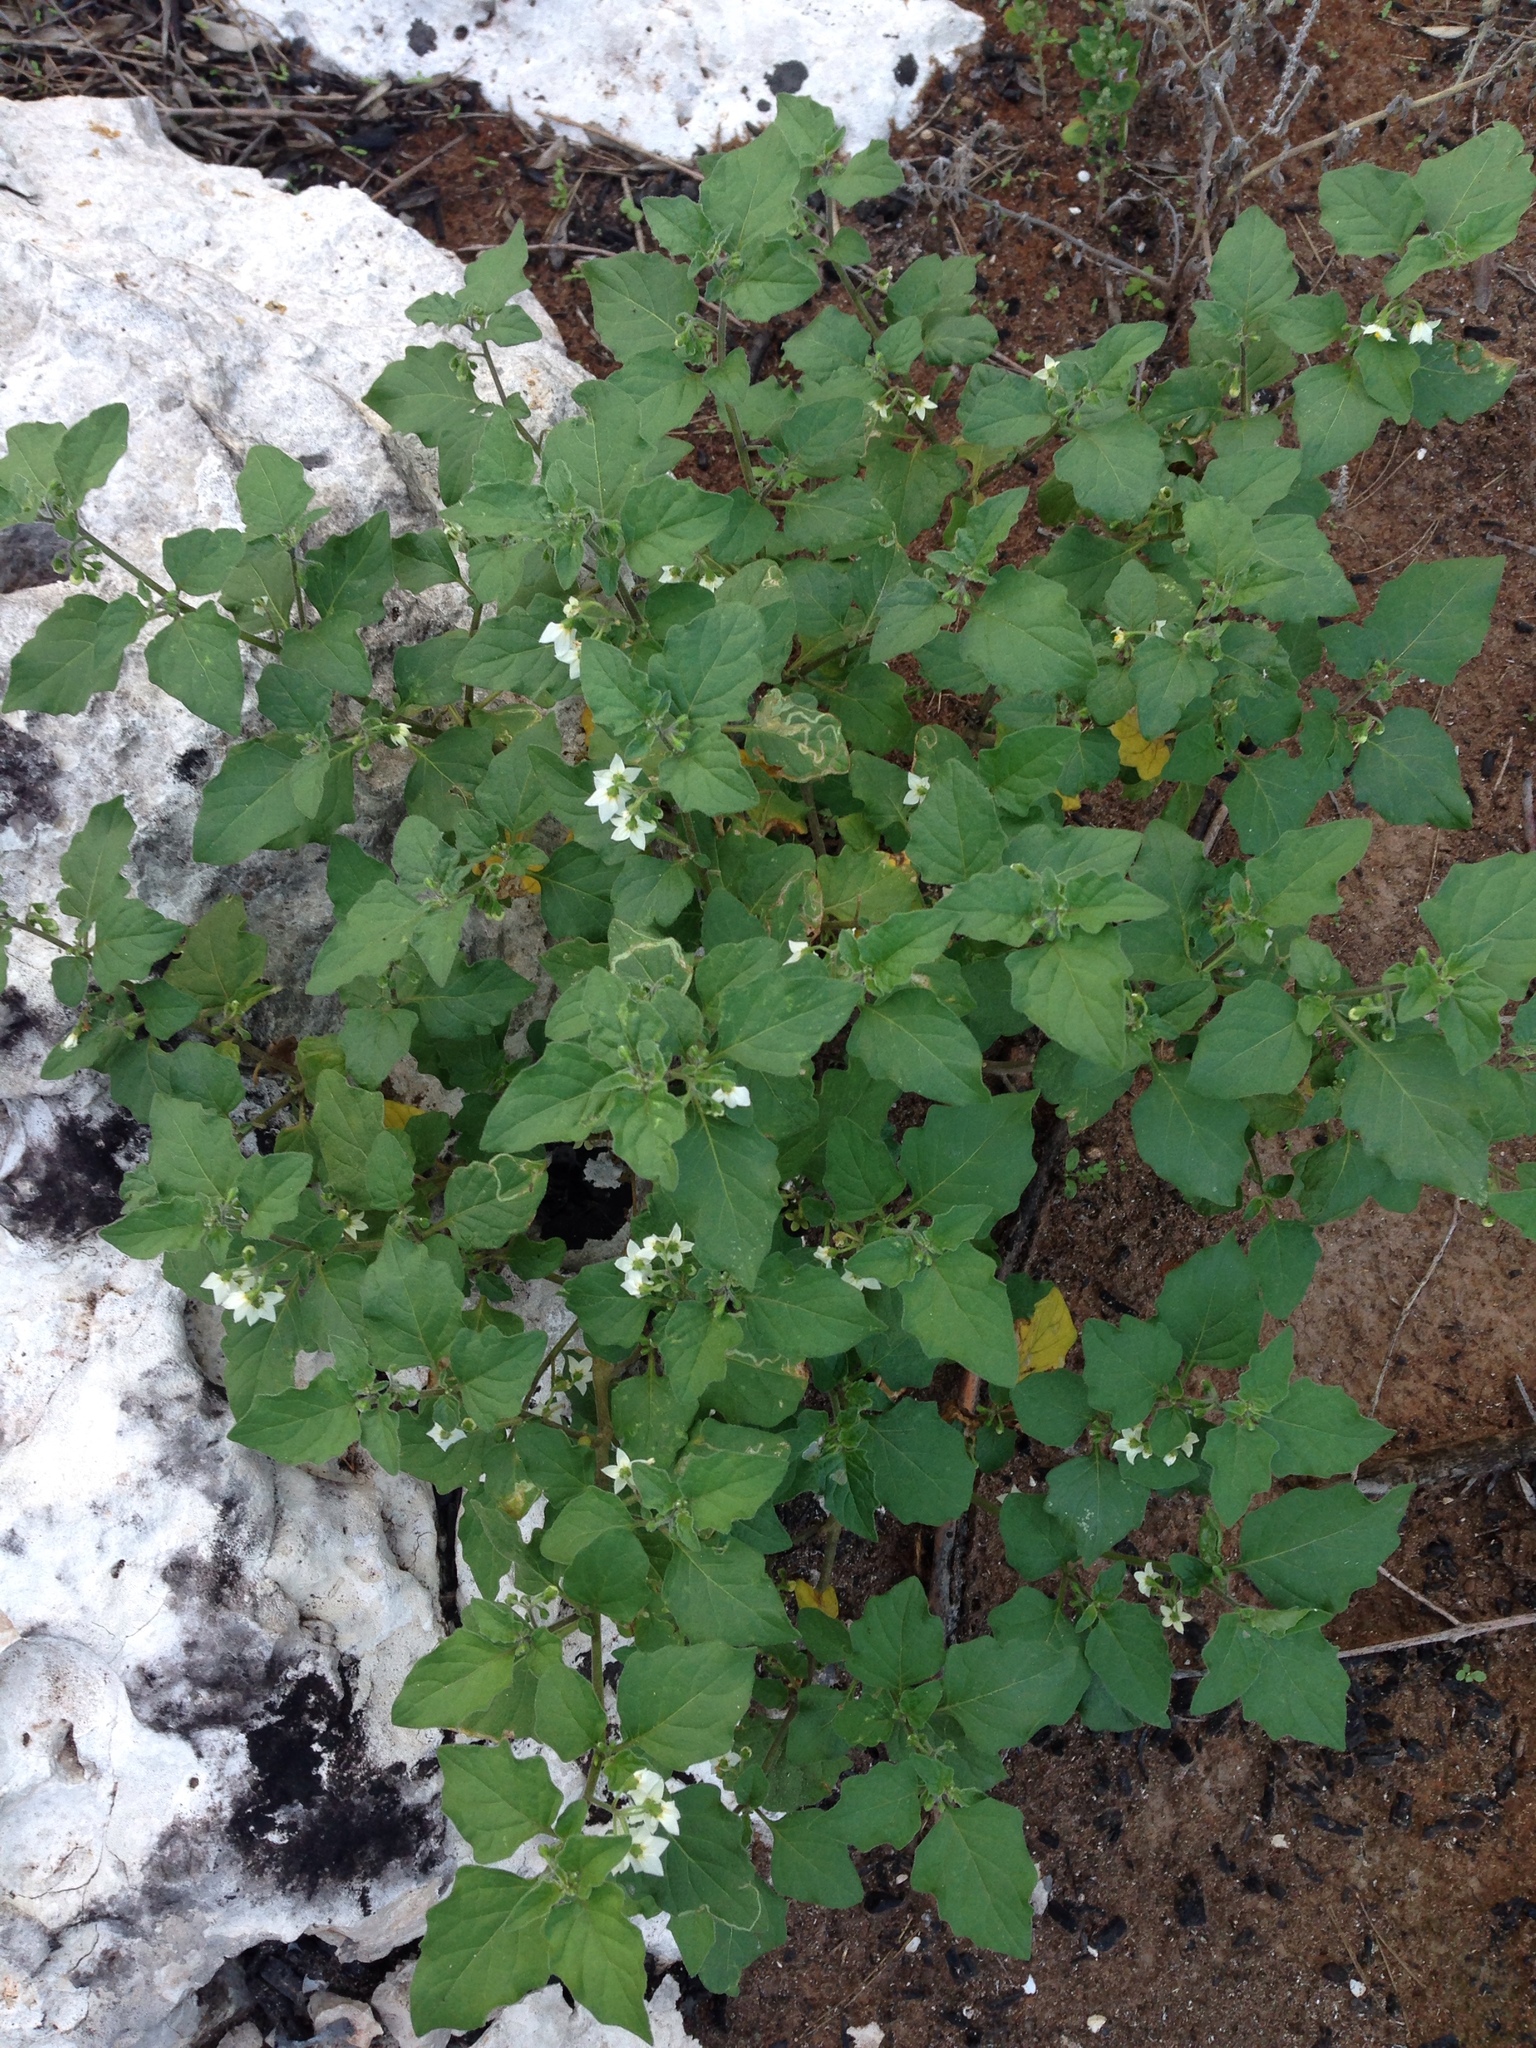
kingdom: Plantae
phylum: Tracheophyta
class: Magnoliopsida
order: Solanales
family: Solanaceae
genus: Solanum
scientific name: Solanum nigrum
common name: Black nightshade
